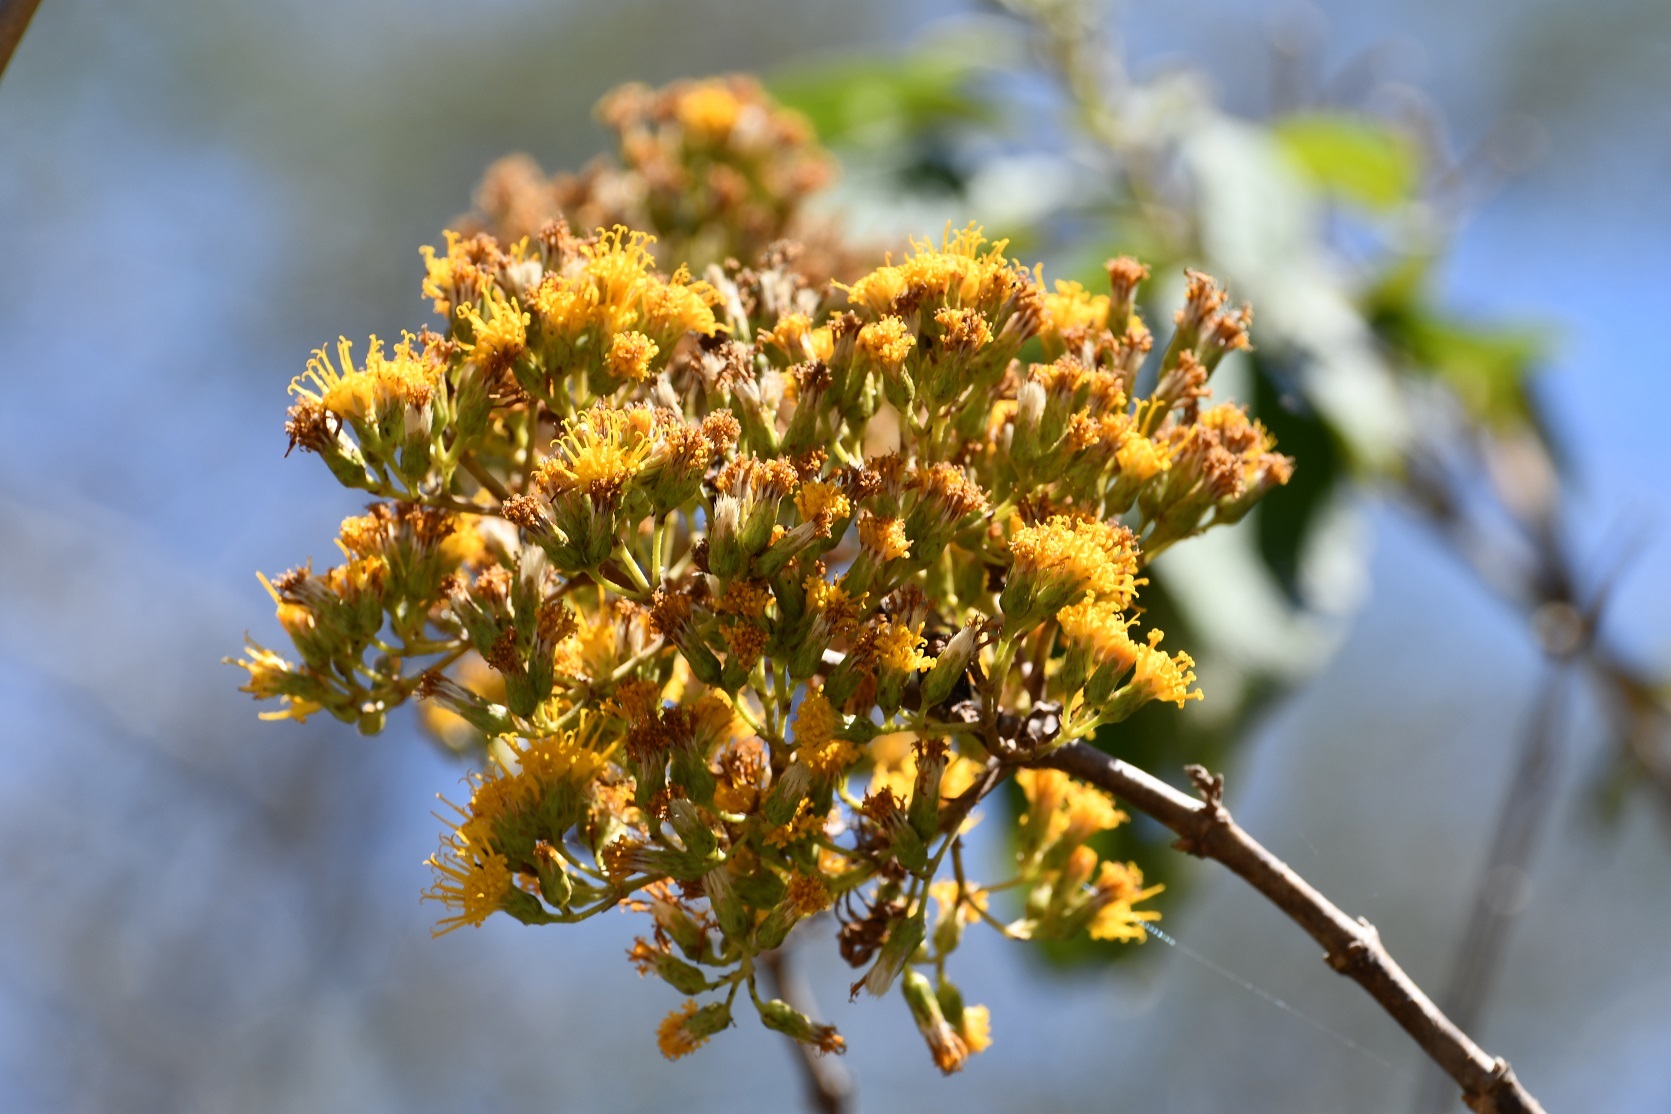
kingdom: Plantae
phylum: Tracheophyta
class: Magnoliopsida
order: Asterales
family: Asteraceae
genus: Sinclairia
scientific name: Sinclairia vagans
